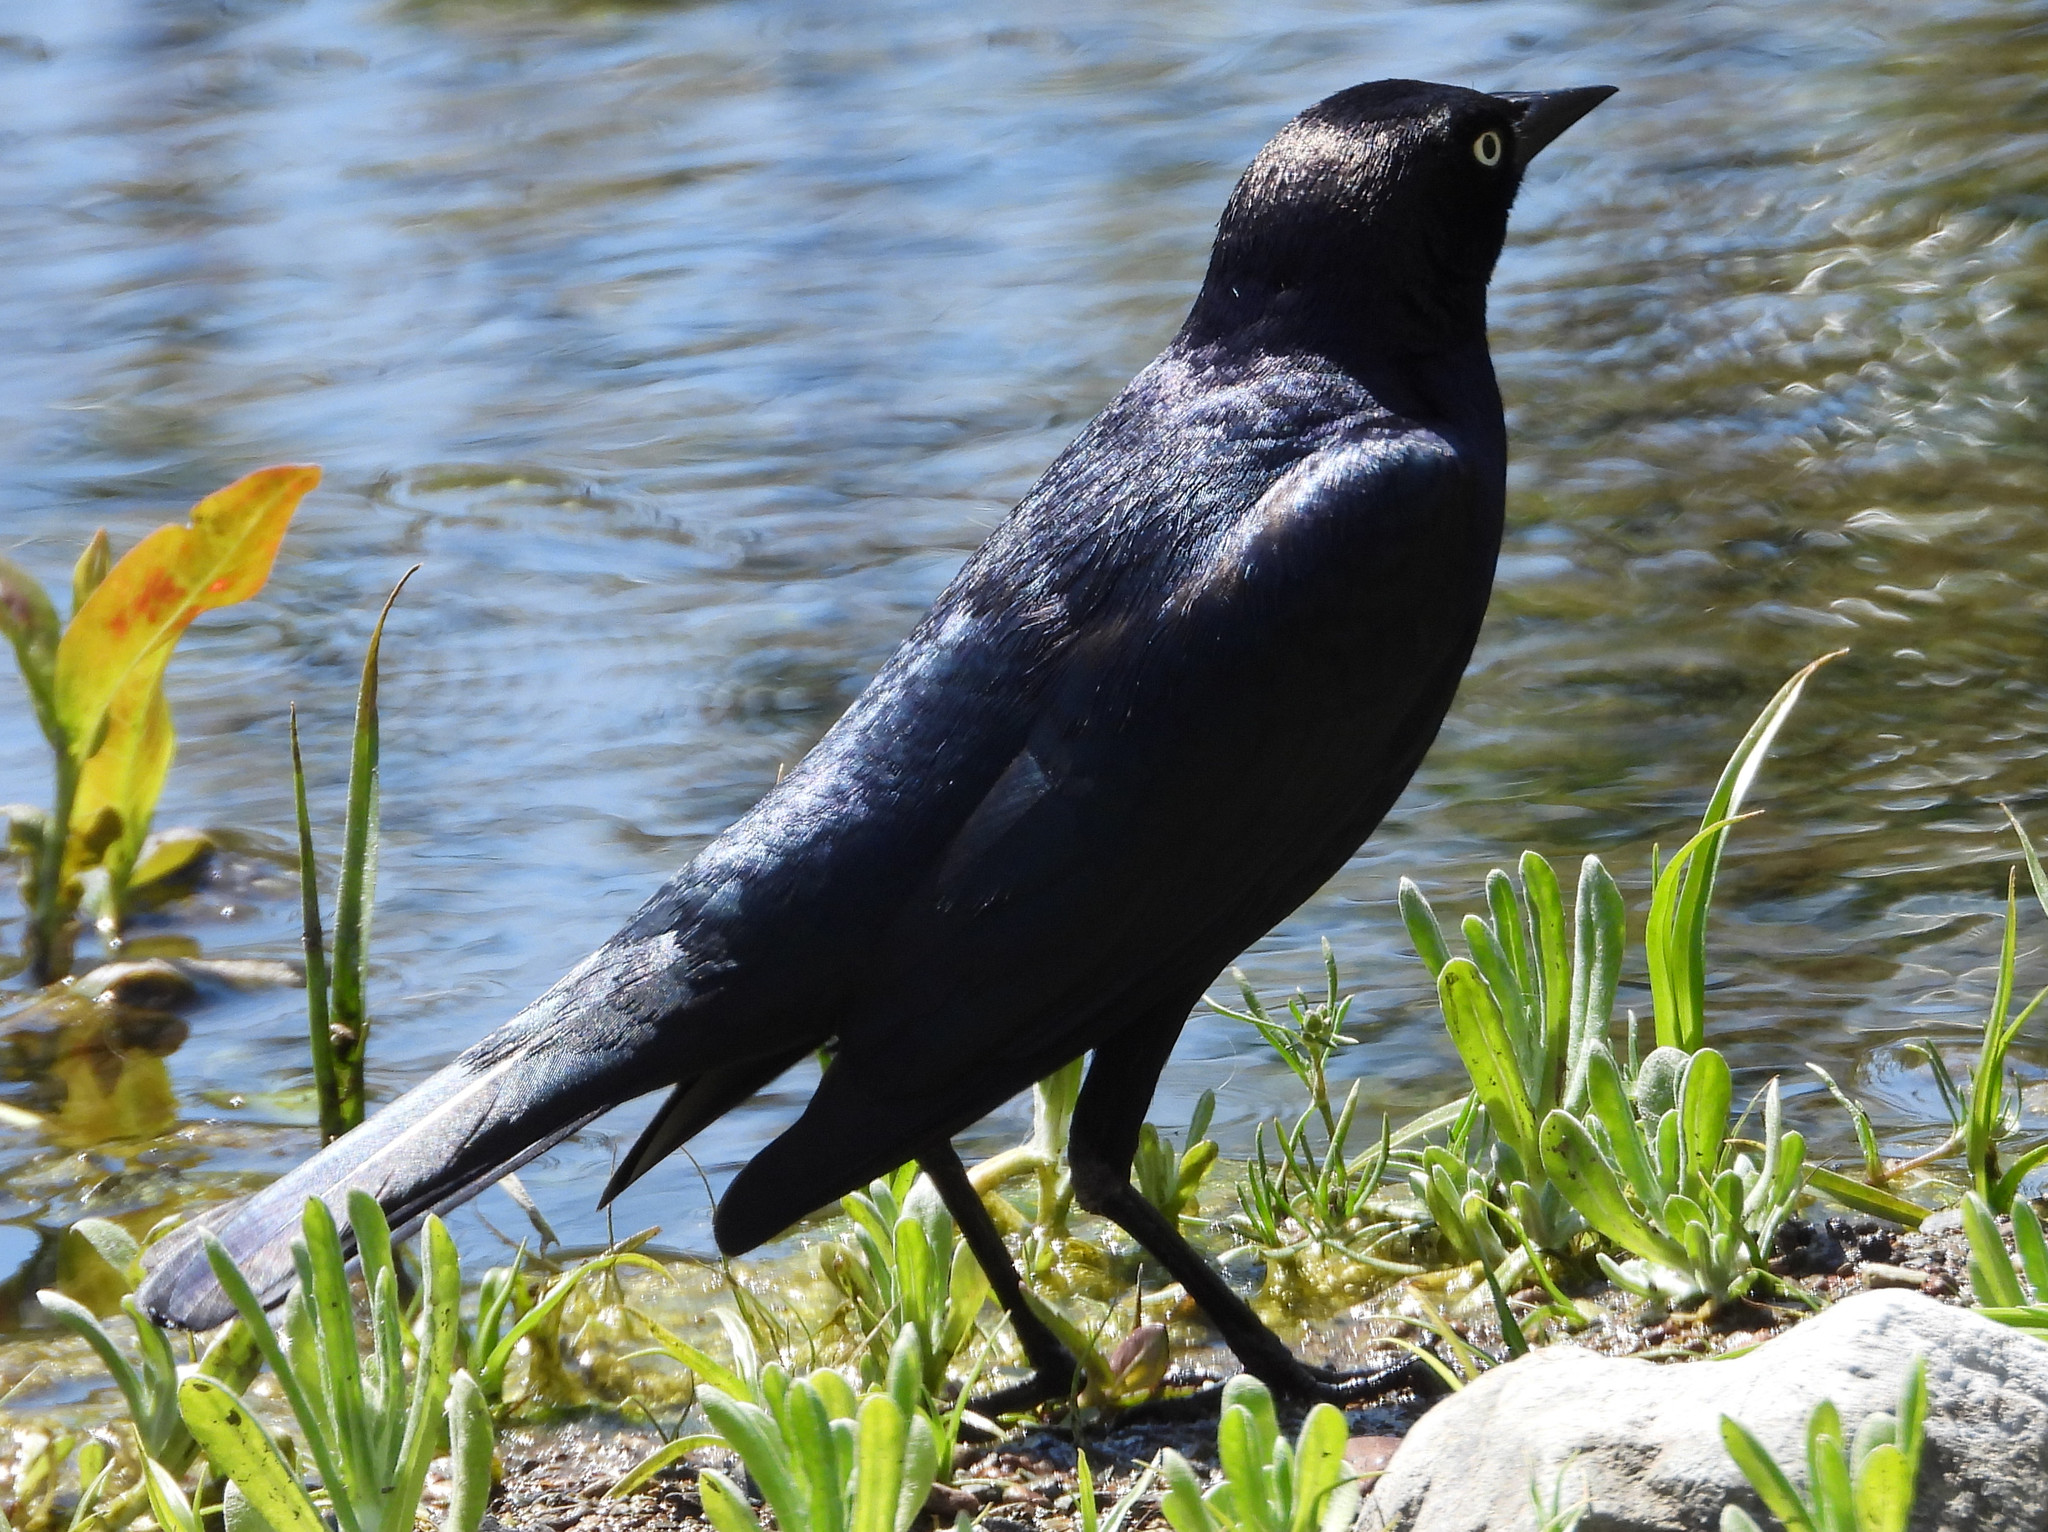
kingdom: Animalia
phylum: Chordata
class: Aves
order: Passeriformes
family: Icteridae
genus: Euphagus
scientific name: Euphagus cyanocephalus
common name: Brewer's blackbird
